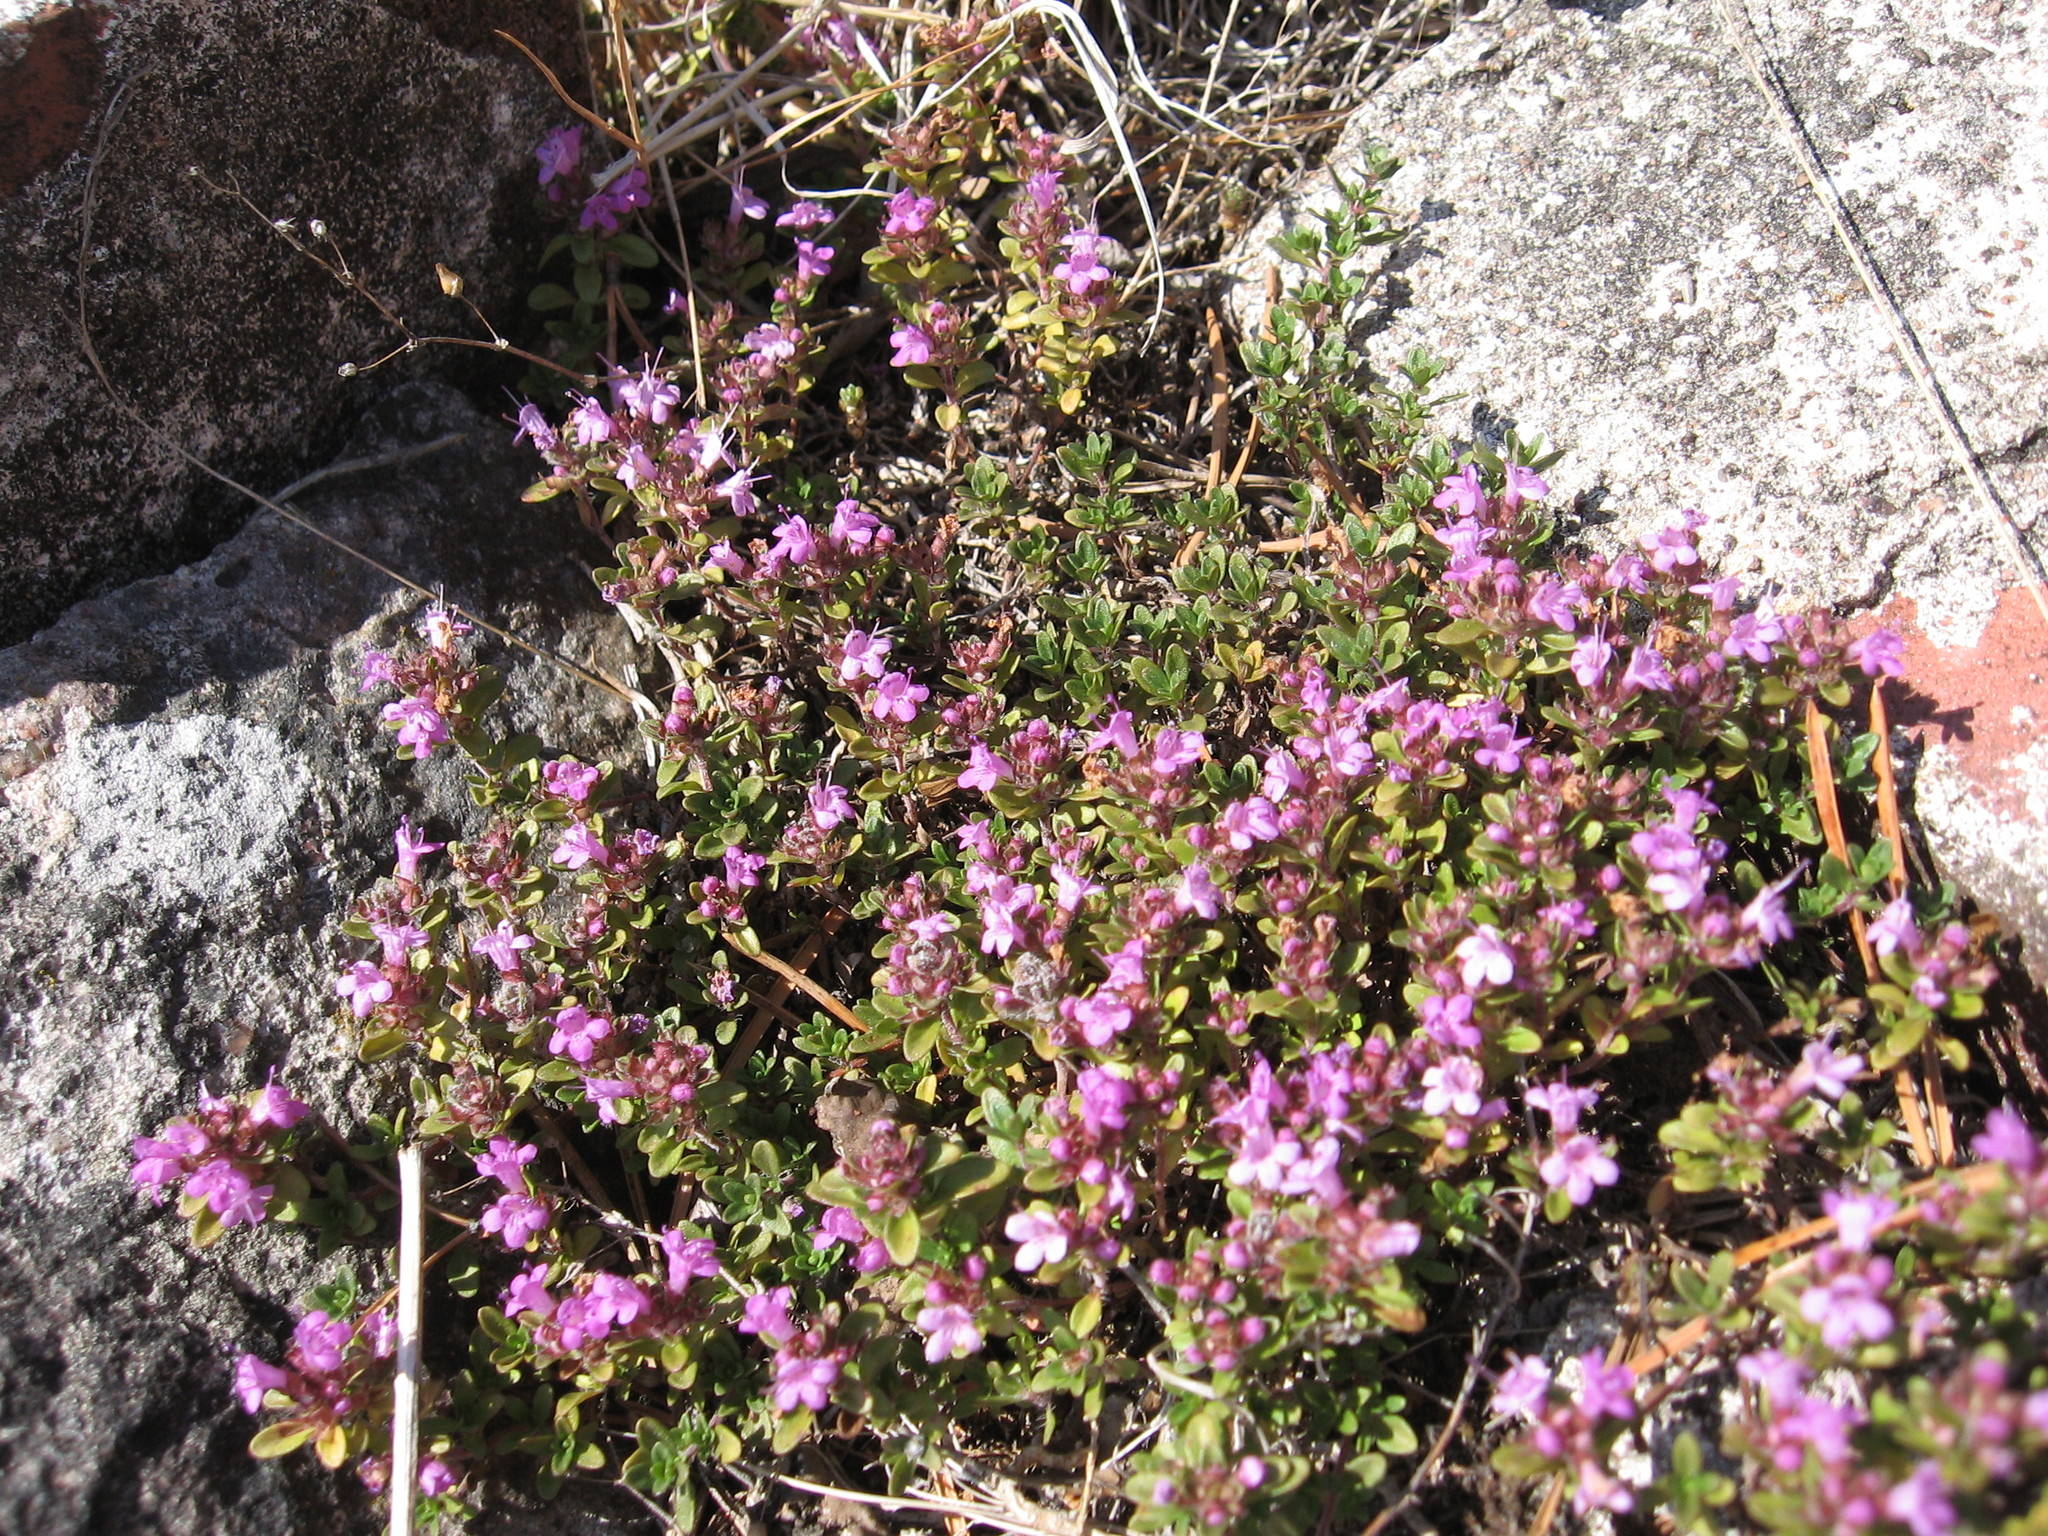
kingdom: Plantae
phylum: Tracheophyta
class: Magnoliopsida
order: Lamiales
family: Lamiaceae
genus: Thymus
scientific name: Thymus serpyllum
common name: Breckland thyme
